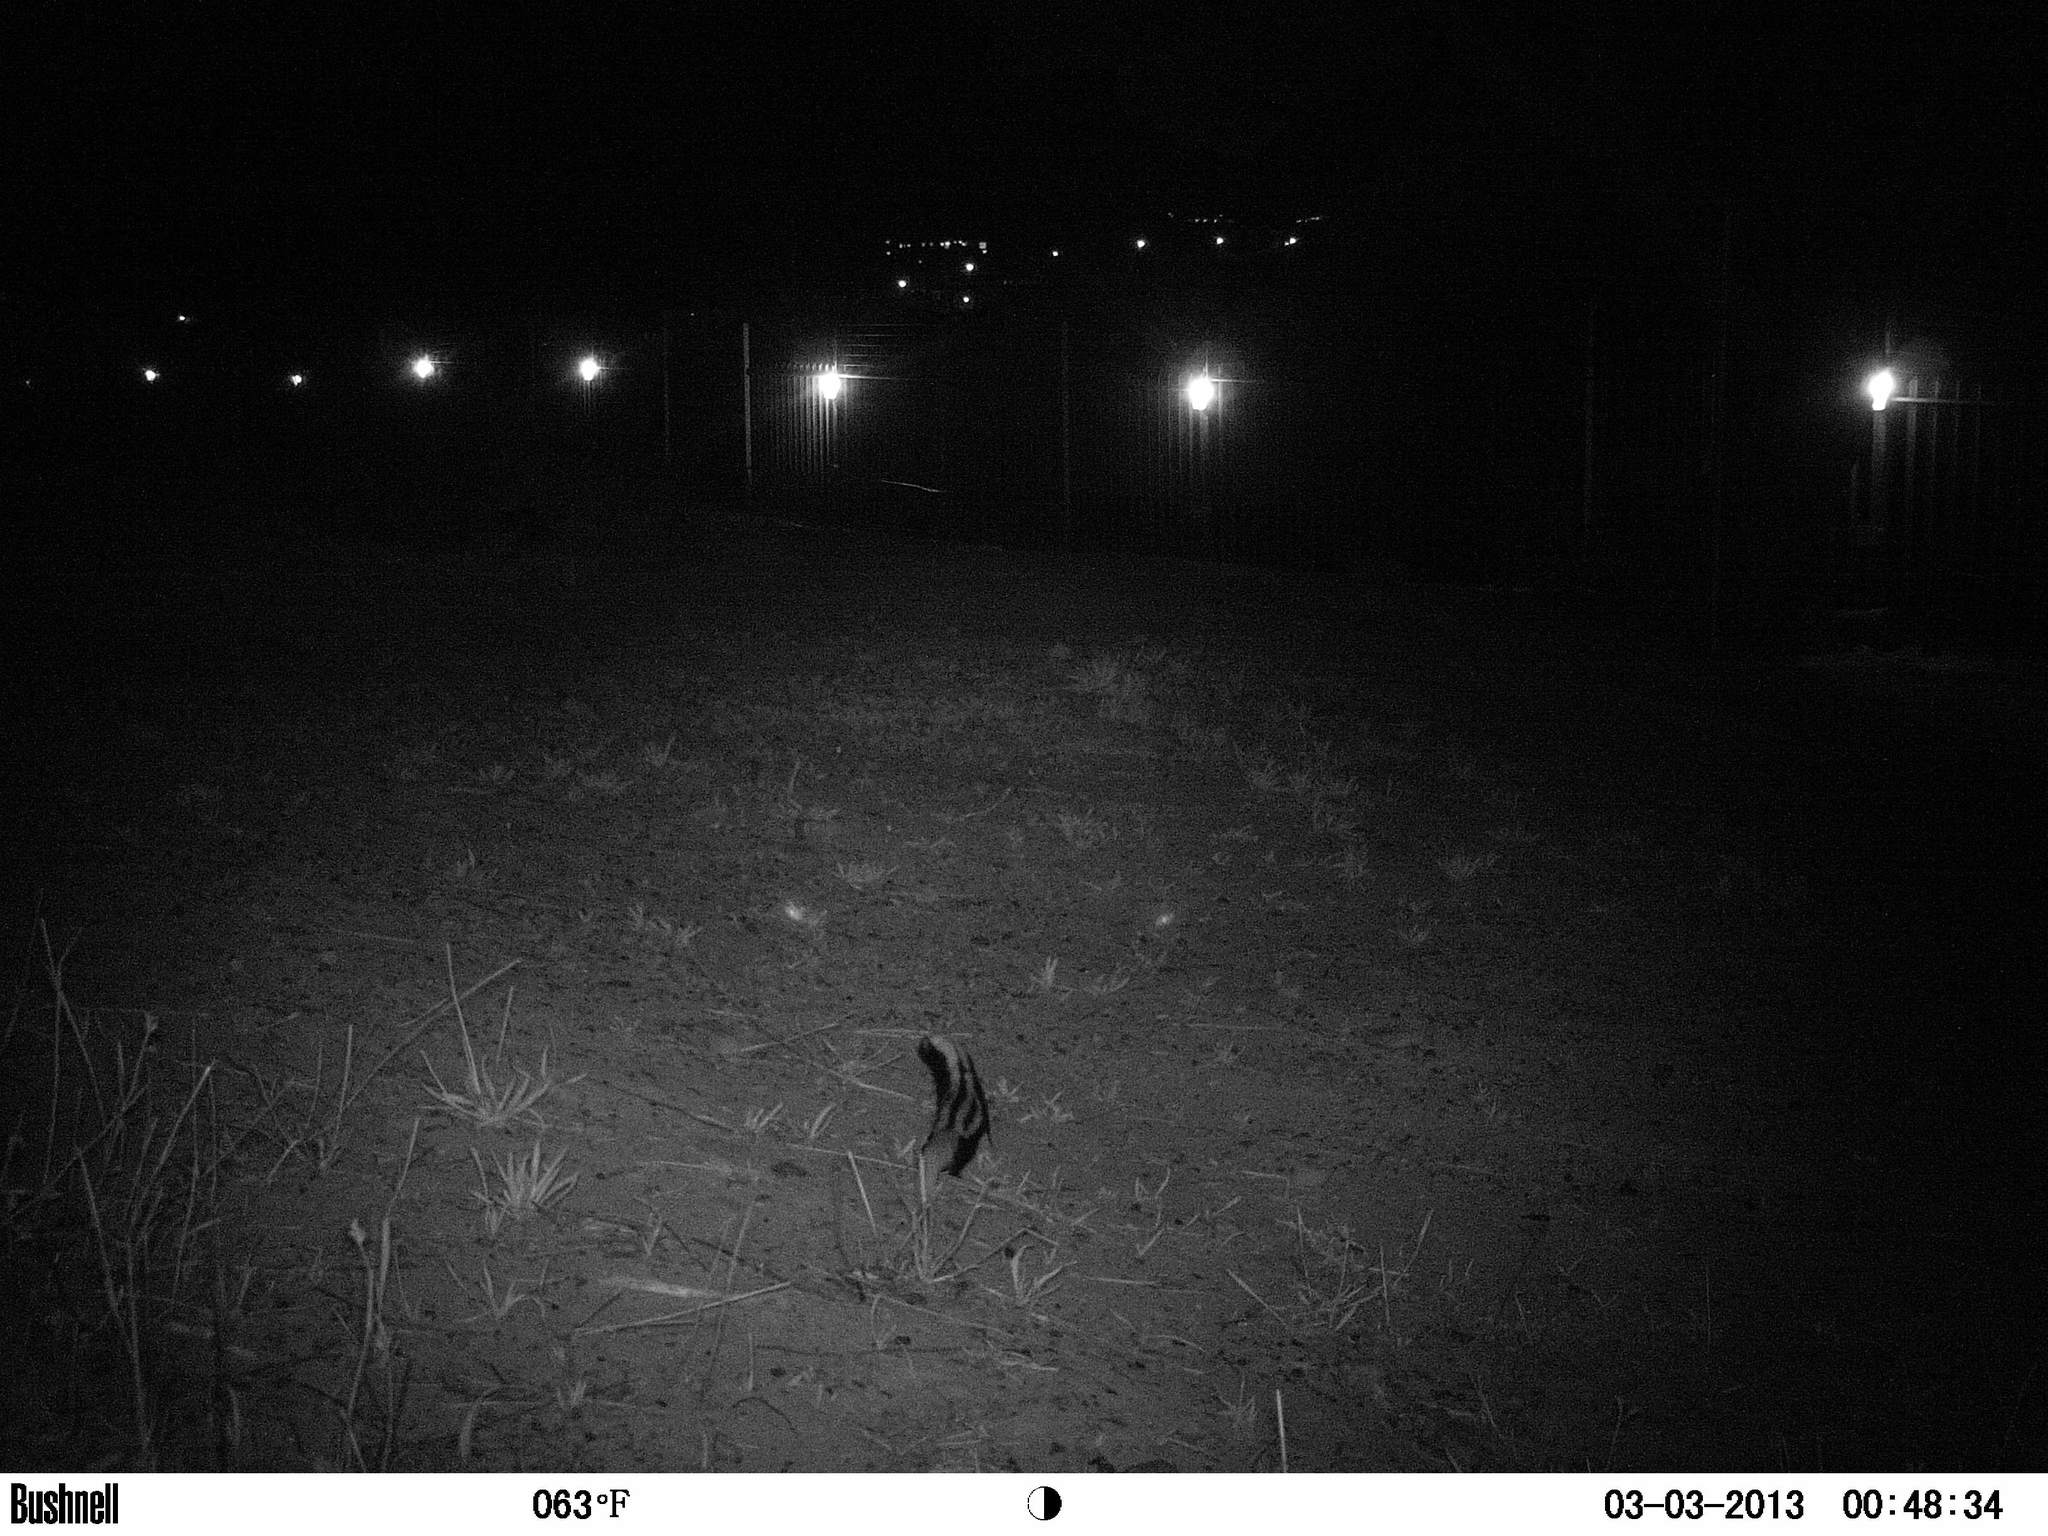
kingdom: Animalia
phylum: Chordata
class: Mammalia
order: Carnivora
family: Mustelidae
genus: Poecilogale
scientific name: Poecilogale albinucha
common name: African striped weasel
